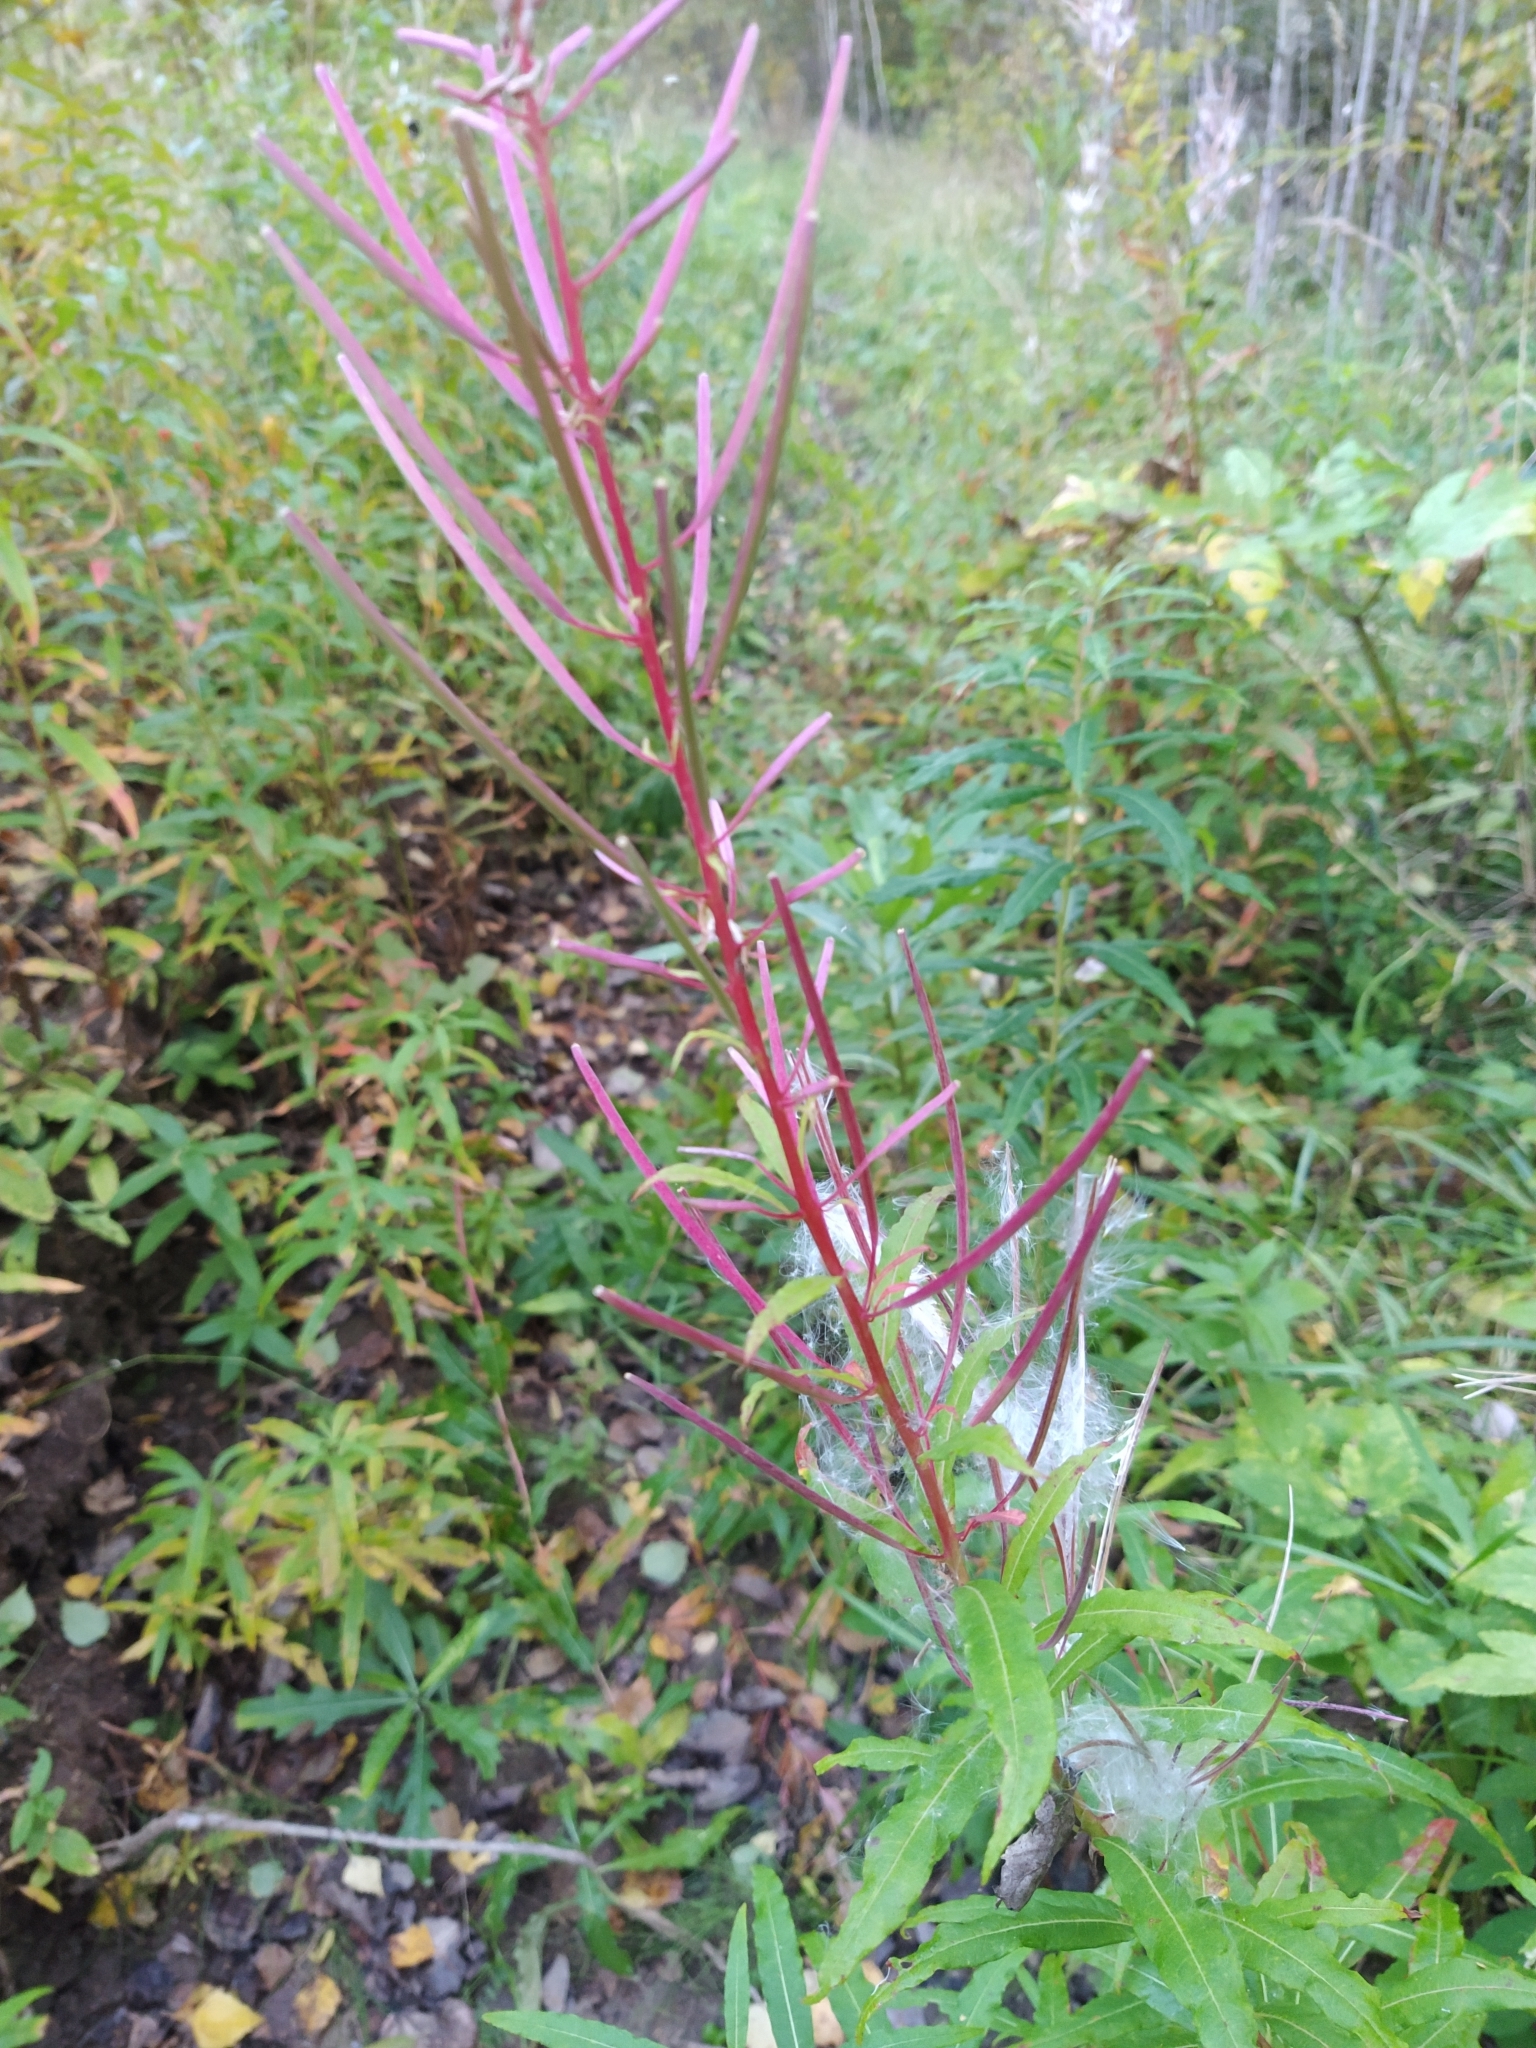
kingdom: Plantae
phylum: Tracheophyta
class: Magnoliopsida
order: Myrtales
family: Onagraceae
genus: Chamaenerion
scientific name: Chamaenerion angustifolium
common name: Fireweed
